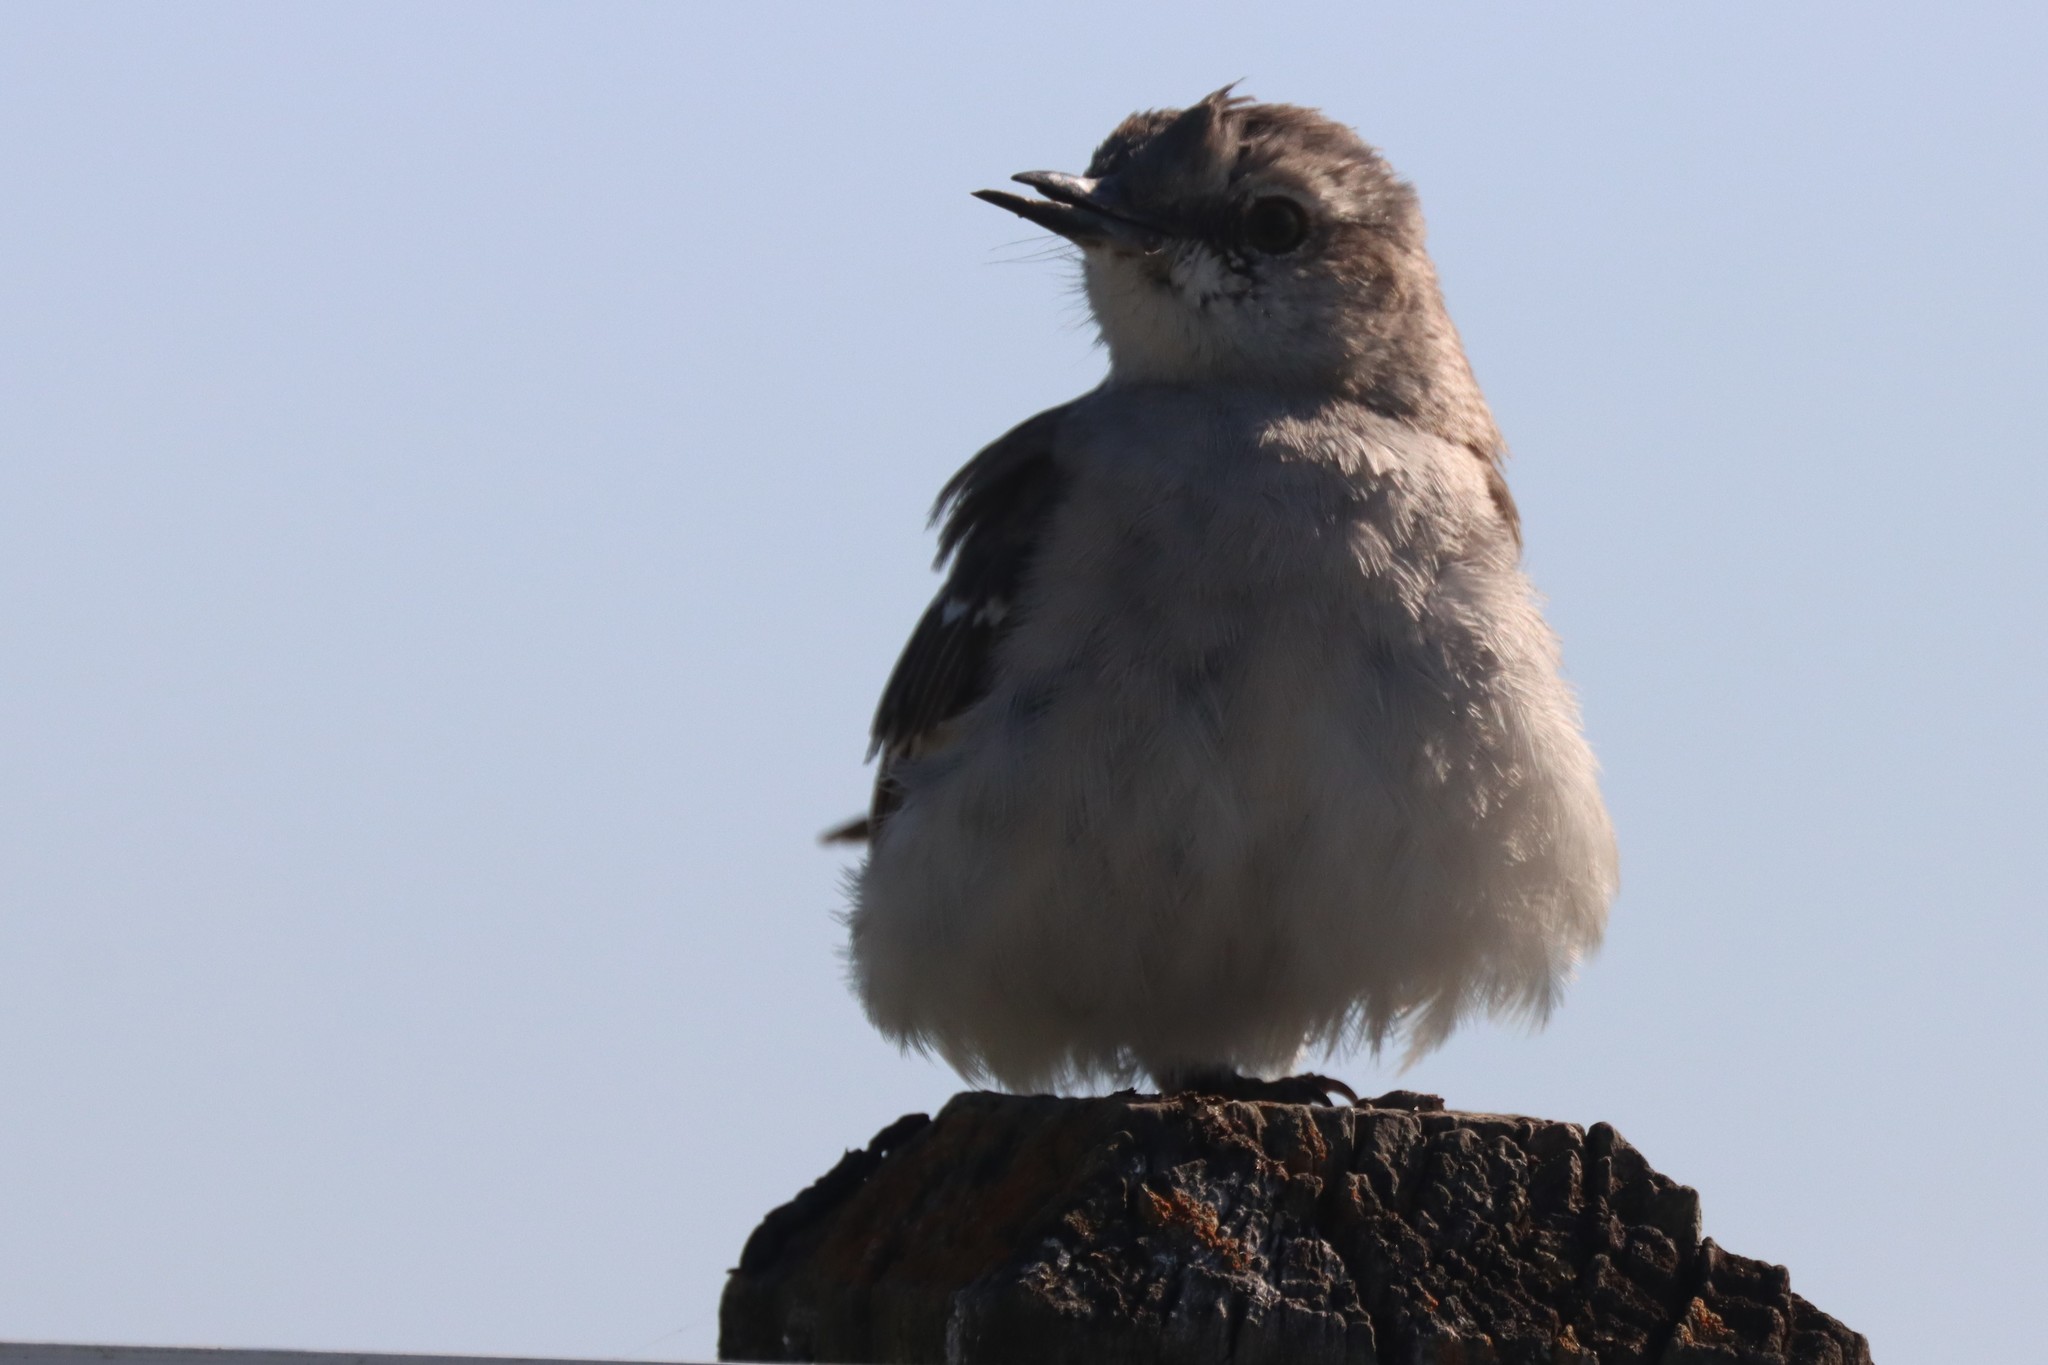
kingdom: Animalia
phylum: Chordata
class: Aves
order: Passeriformes
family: Mimidae
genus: Mimus
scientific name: Mimus polyglottos
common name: Northern mockingbird
